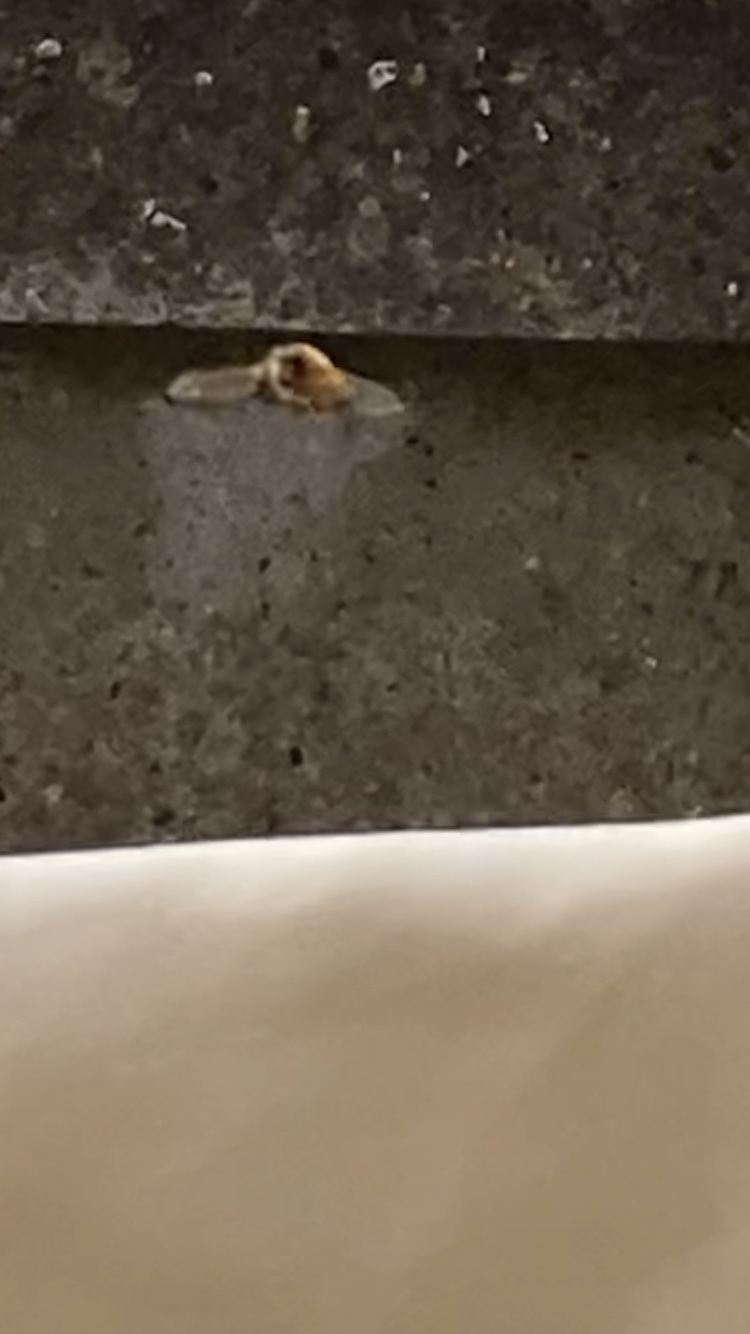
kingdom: Animalia
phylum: Arthropoda
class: Insecta
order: Diptera
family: Syrphidae
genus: Epistrophe
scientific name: Epistrophe eligans
